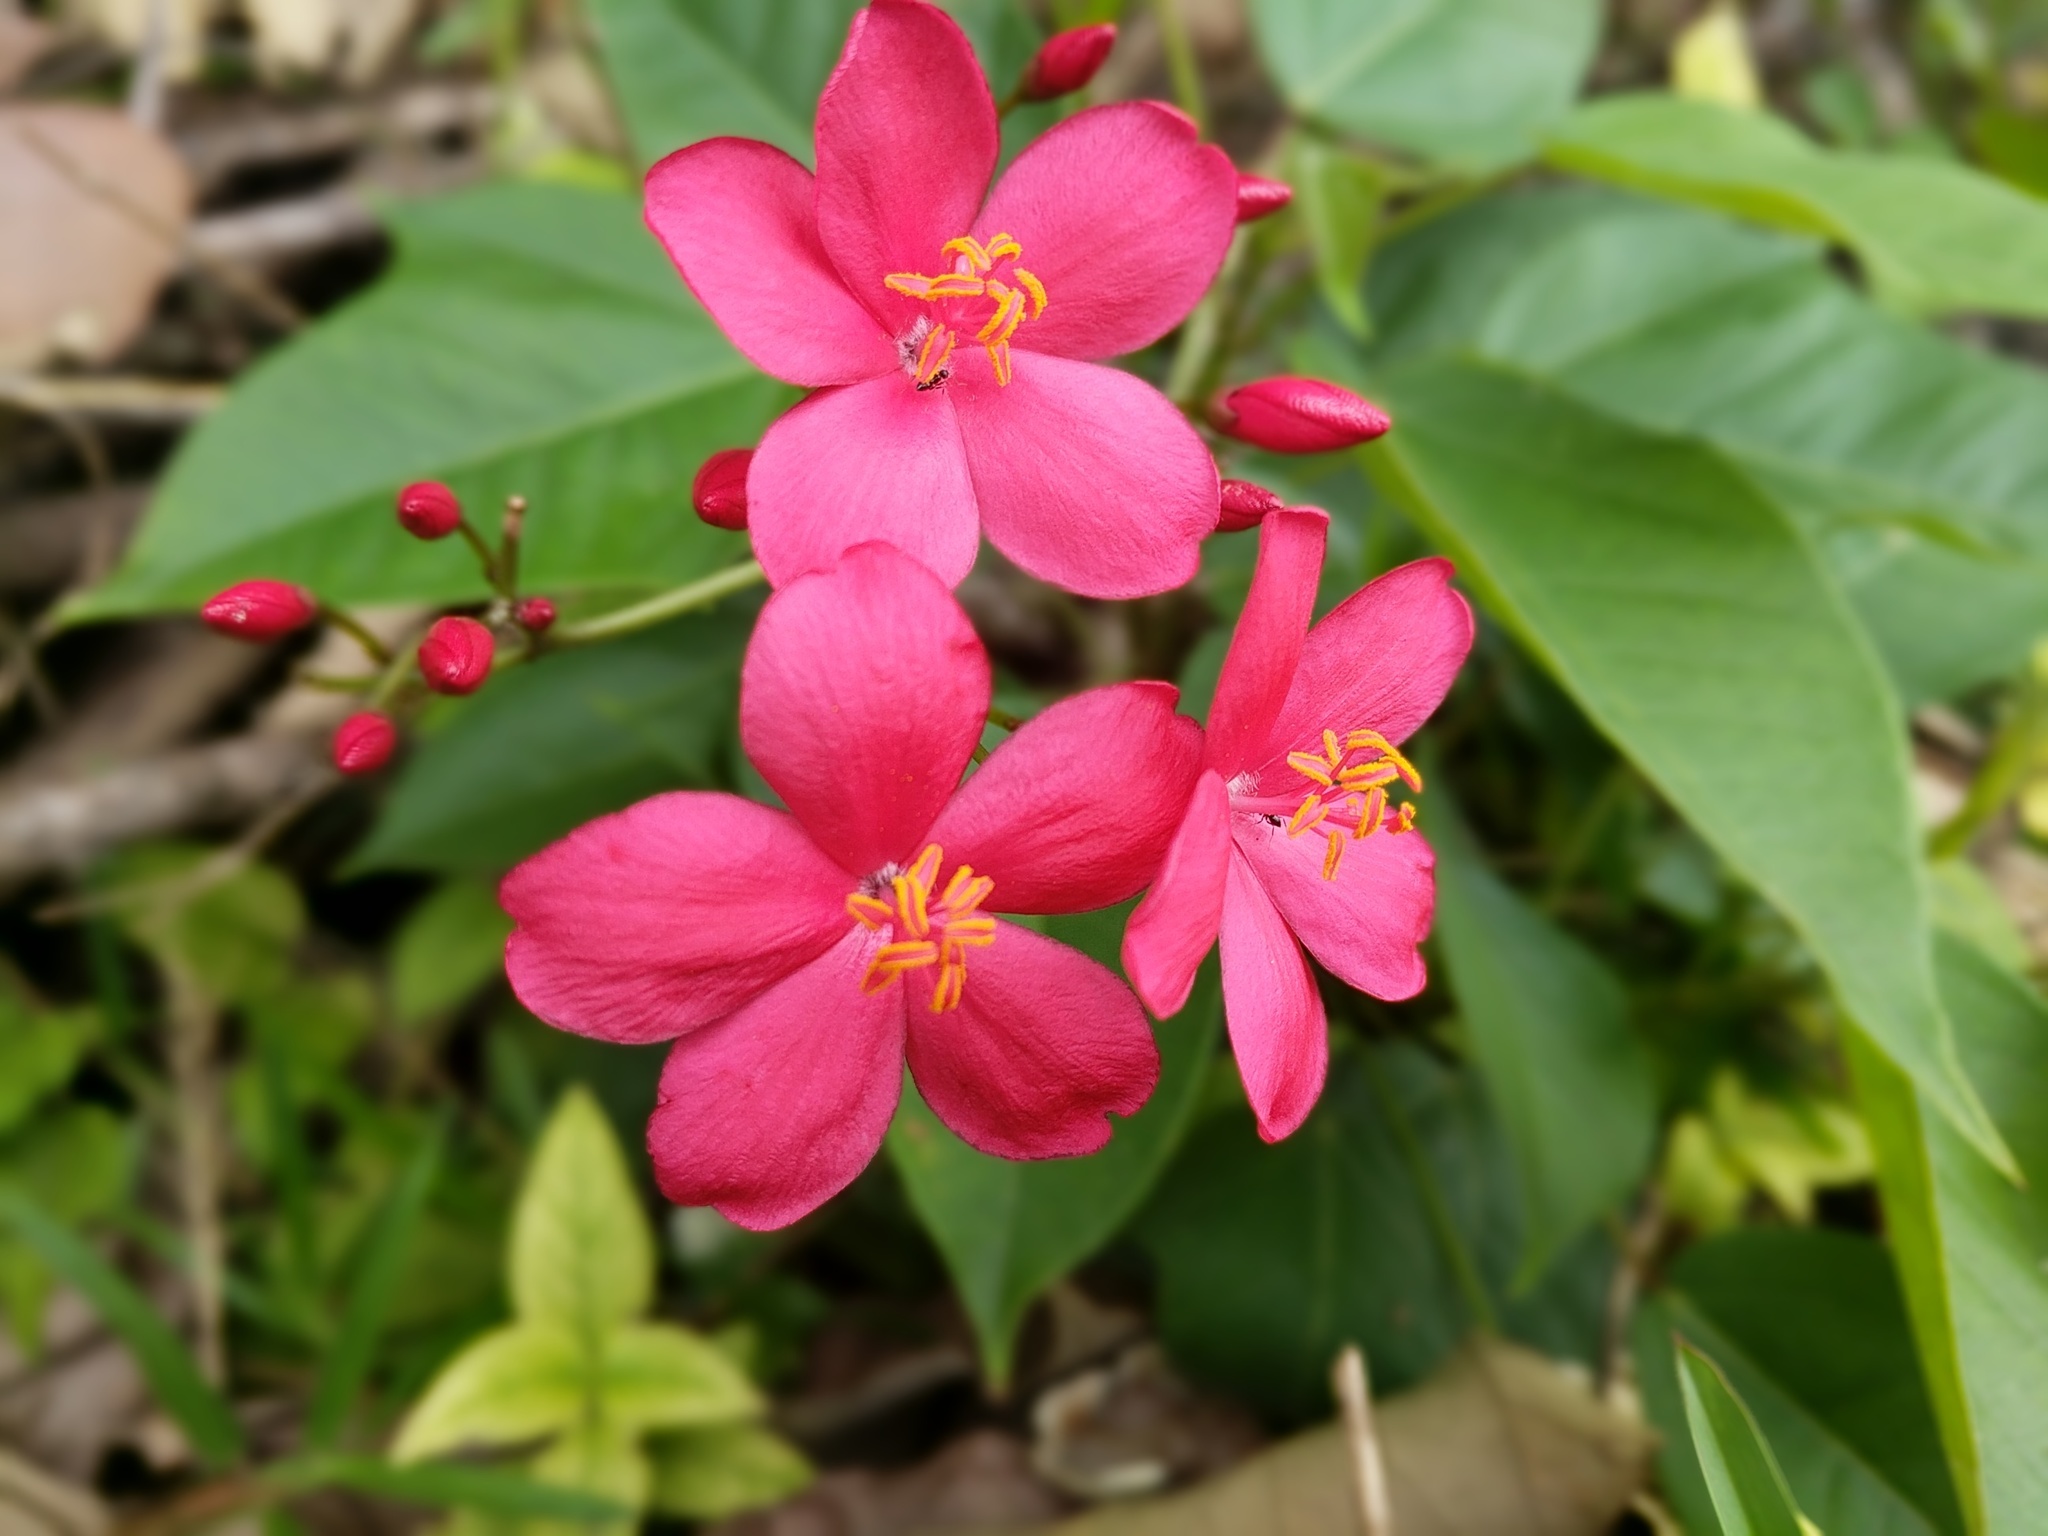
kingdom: Plantae
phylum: Tracheophyta
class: Magnoliopsida
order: Malpighiales
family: Euphorbiaceae
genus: Jatropha
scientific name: Jatropha integerrima
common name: Peregrina
